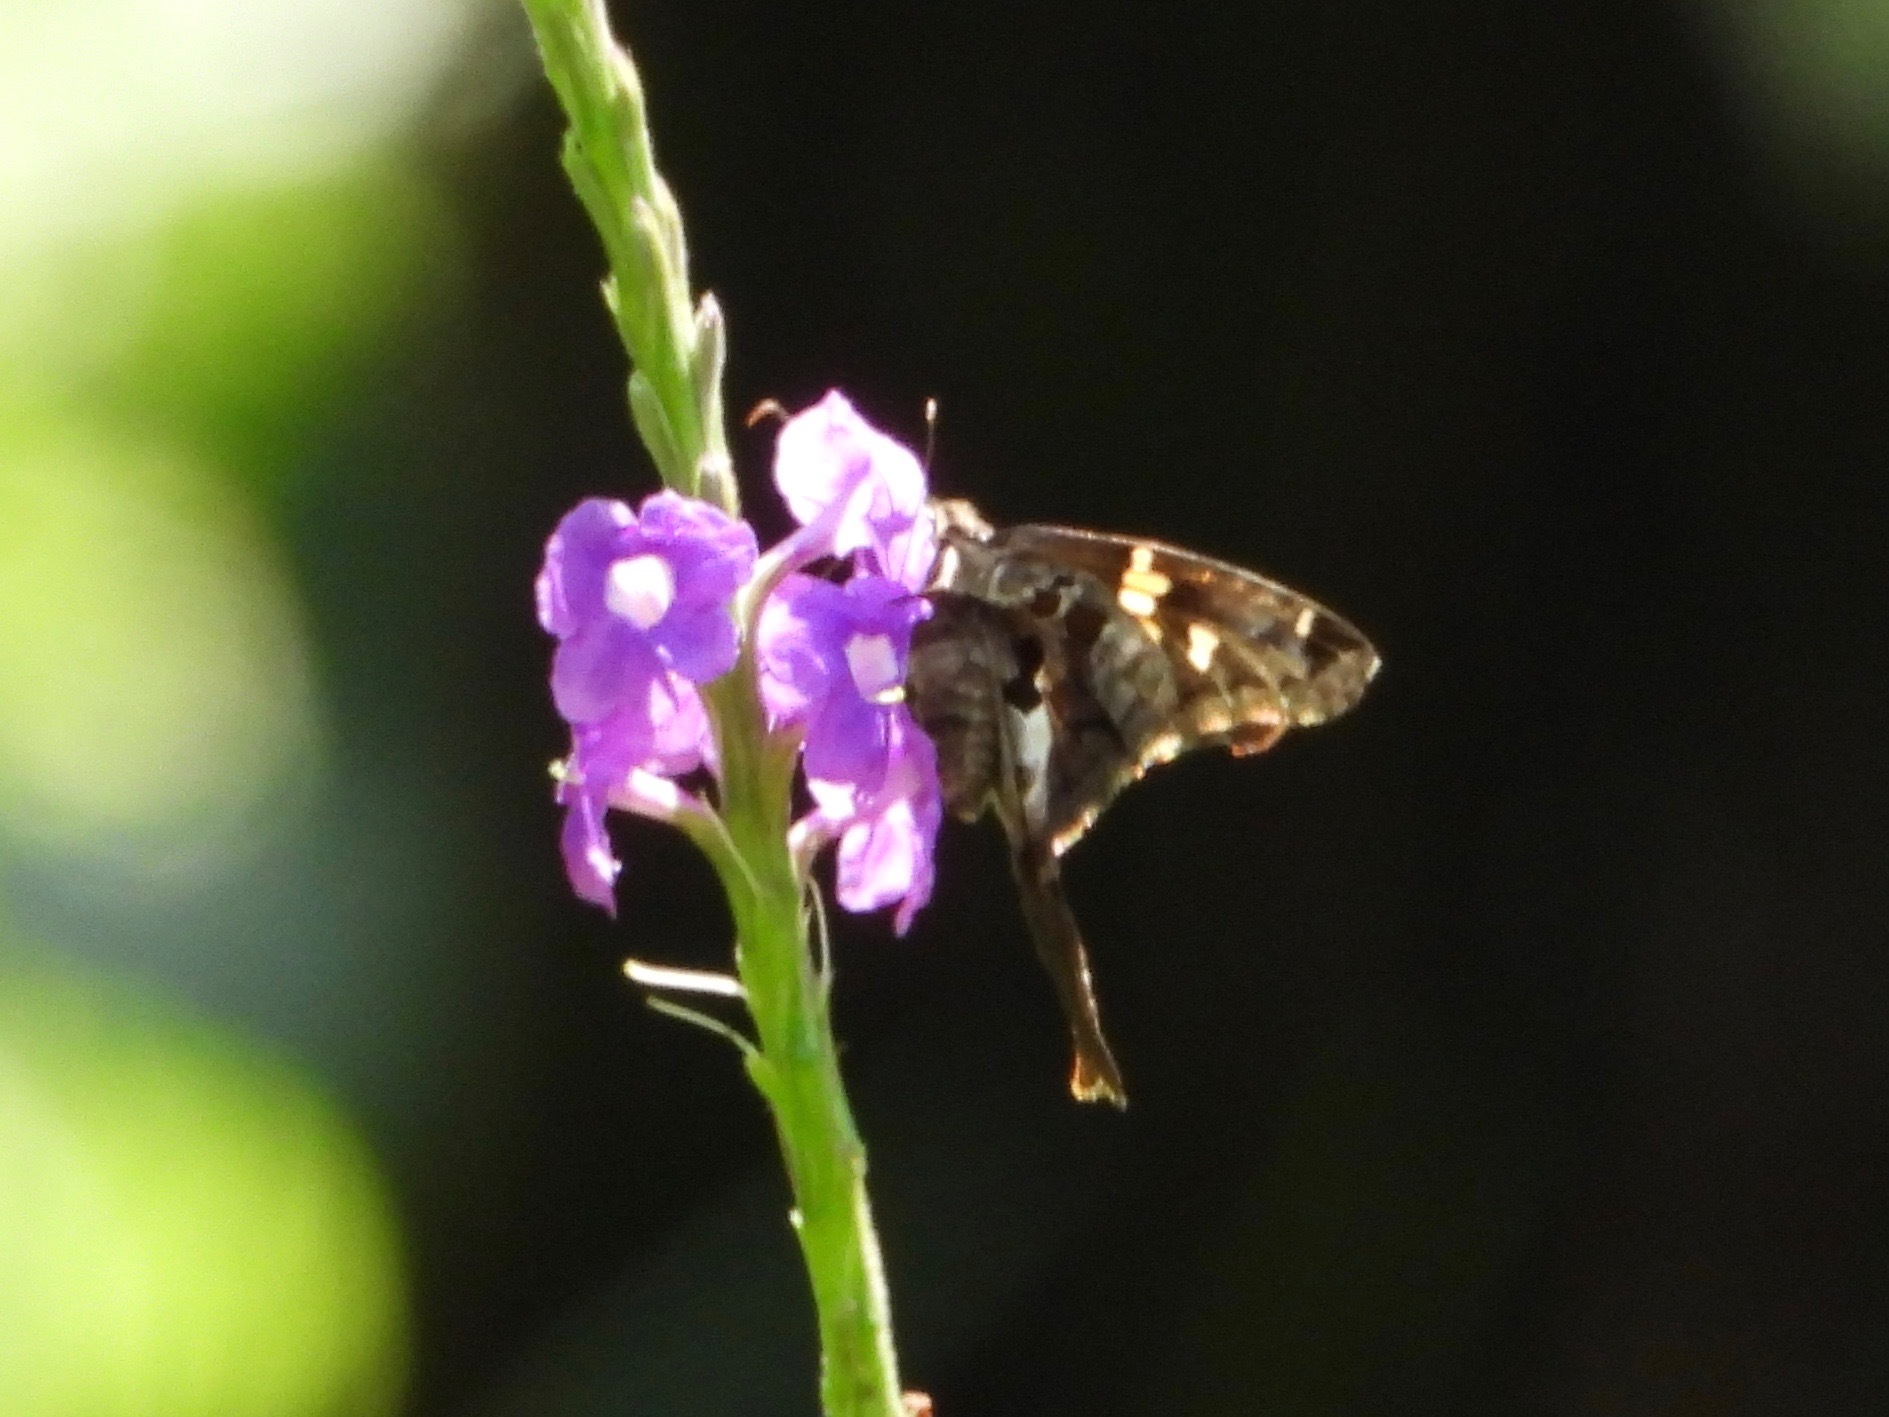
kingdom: Animalia
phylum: Arthropoda
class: Insecta
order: Lepidoptera
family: Hesperiidae
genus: Chioides
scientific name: Chioides zilpa
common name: Zilpa longtail
